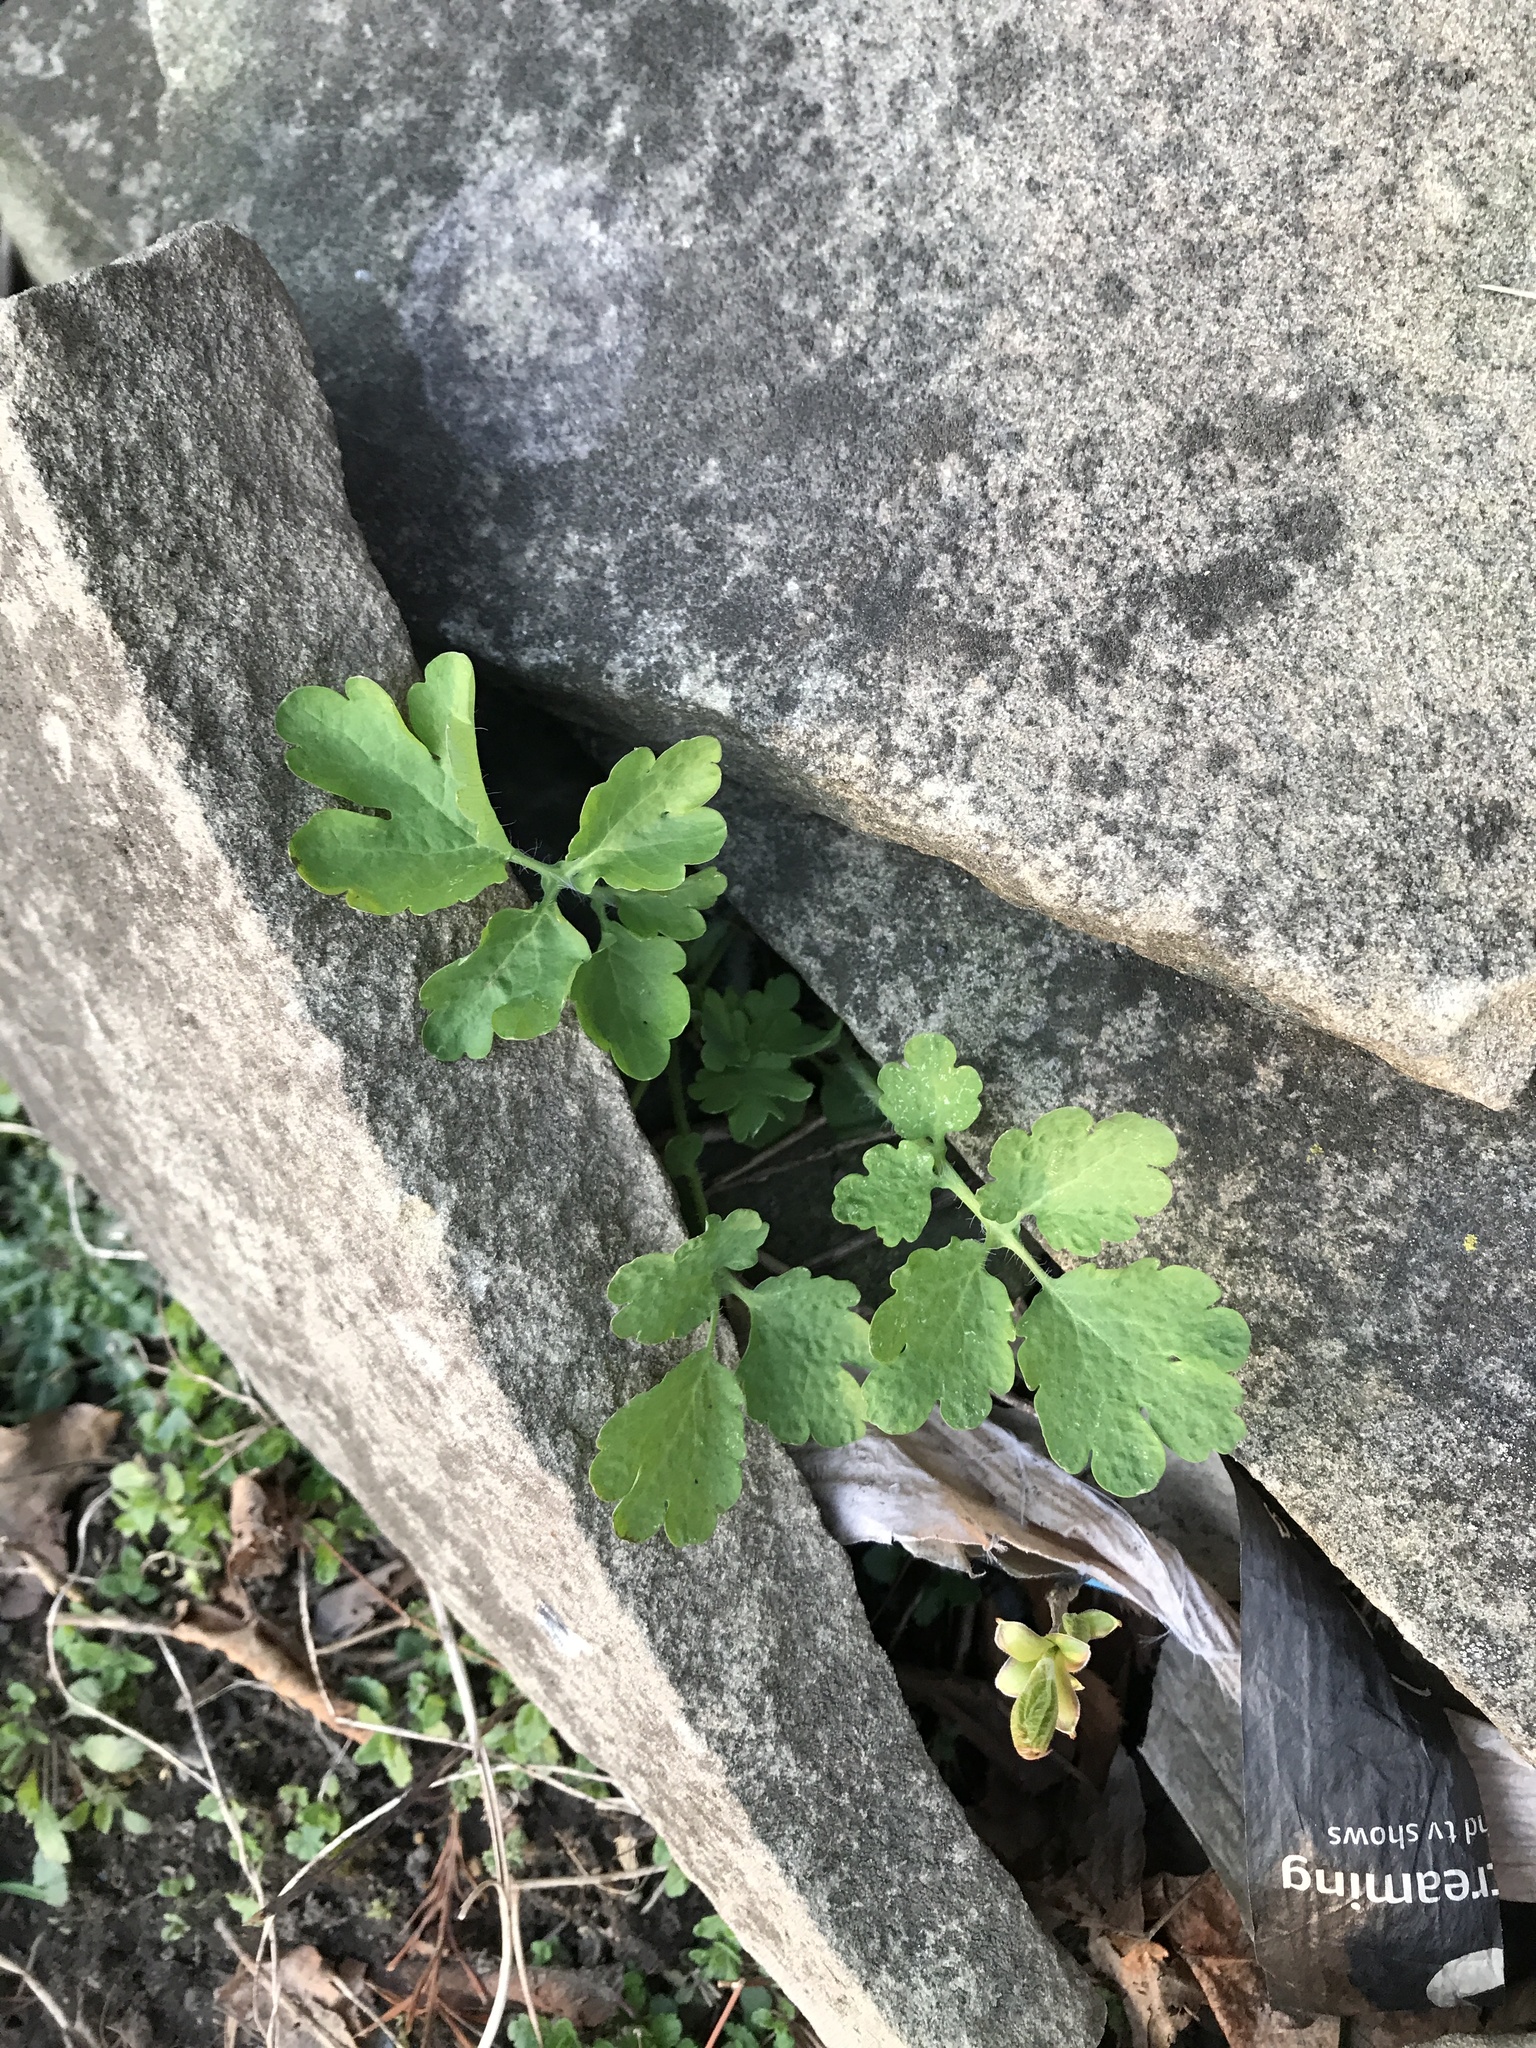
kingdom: Plantae
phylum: Tracheophyta
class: Magnoliopsida
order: Ranunculales
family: Papaveraceae
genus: Chelidonium
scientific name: Chelidonium majus
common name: Greater celandine
